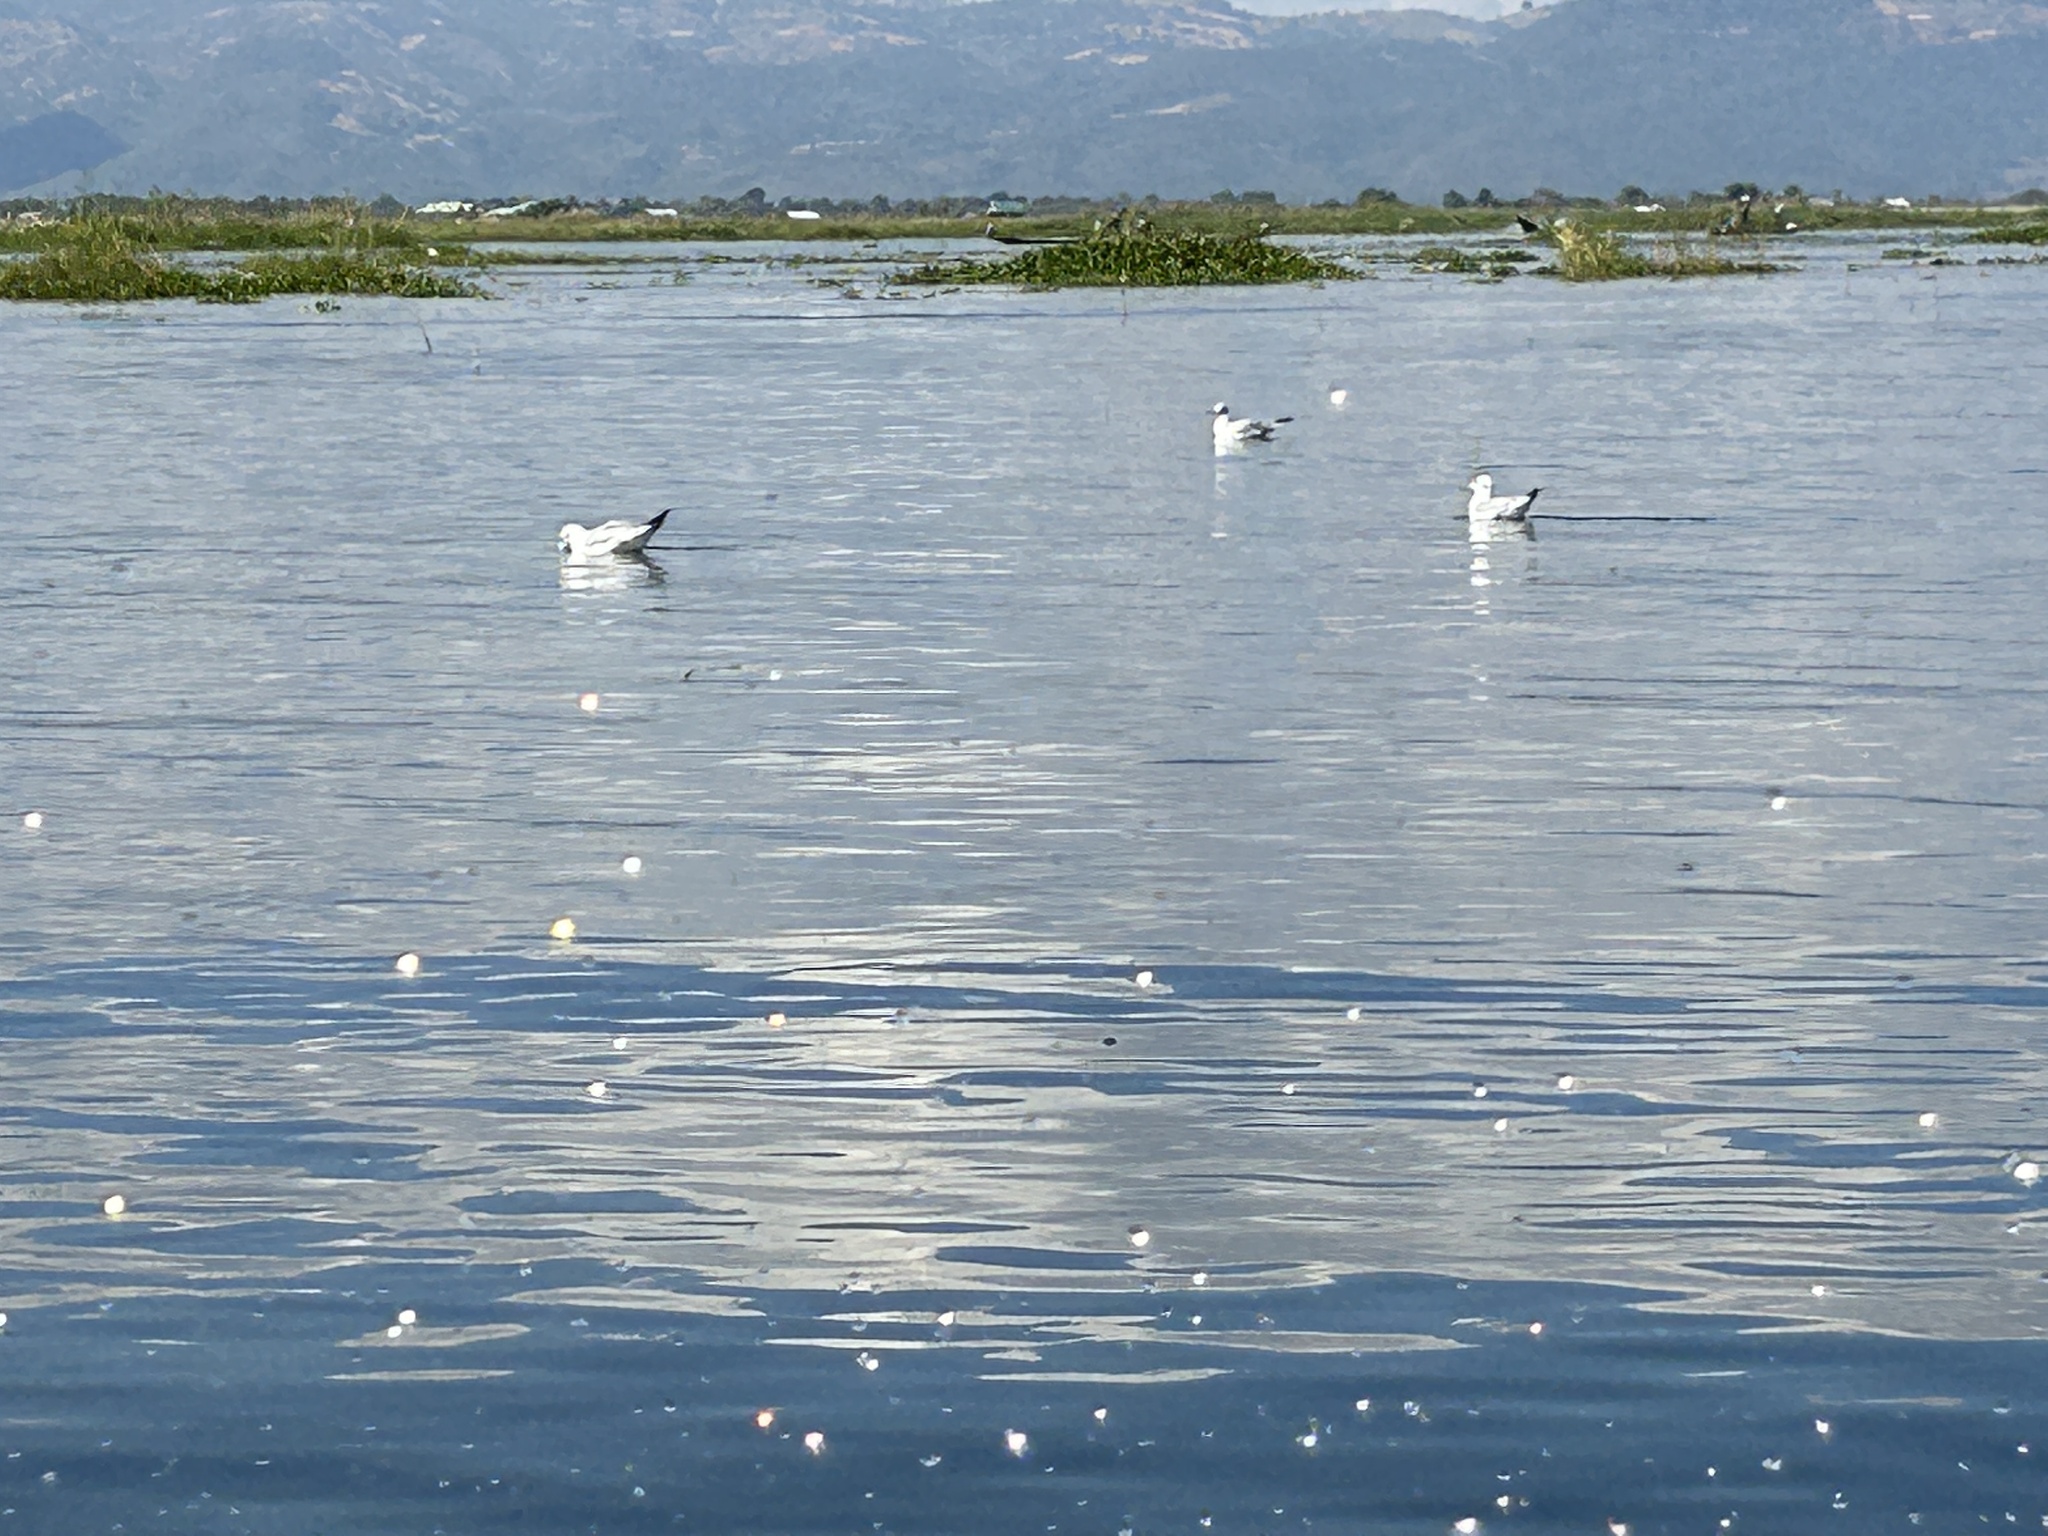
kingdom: Animalia
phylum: Chordata
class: Aves
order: Charadriiformes
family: Laridae
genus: Chroicocephalus
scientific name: Chroicocephalus brunnicephalus
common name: Brown-headed gull
